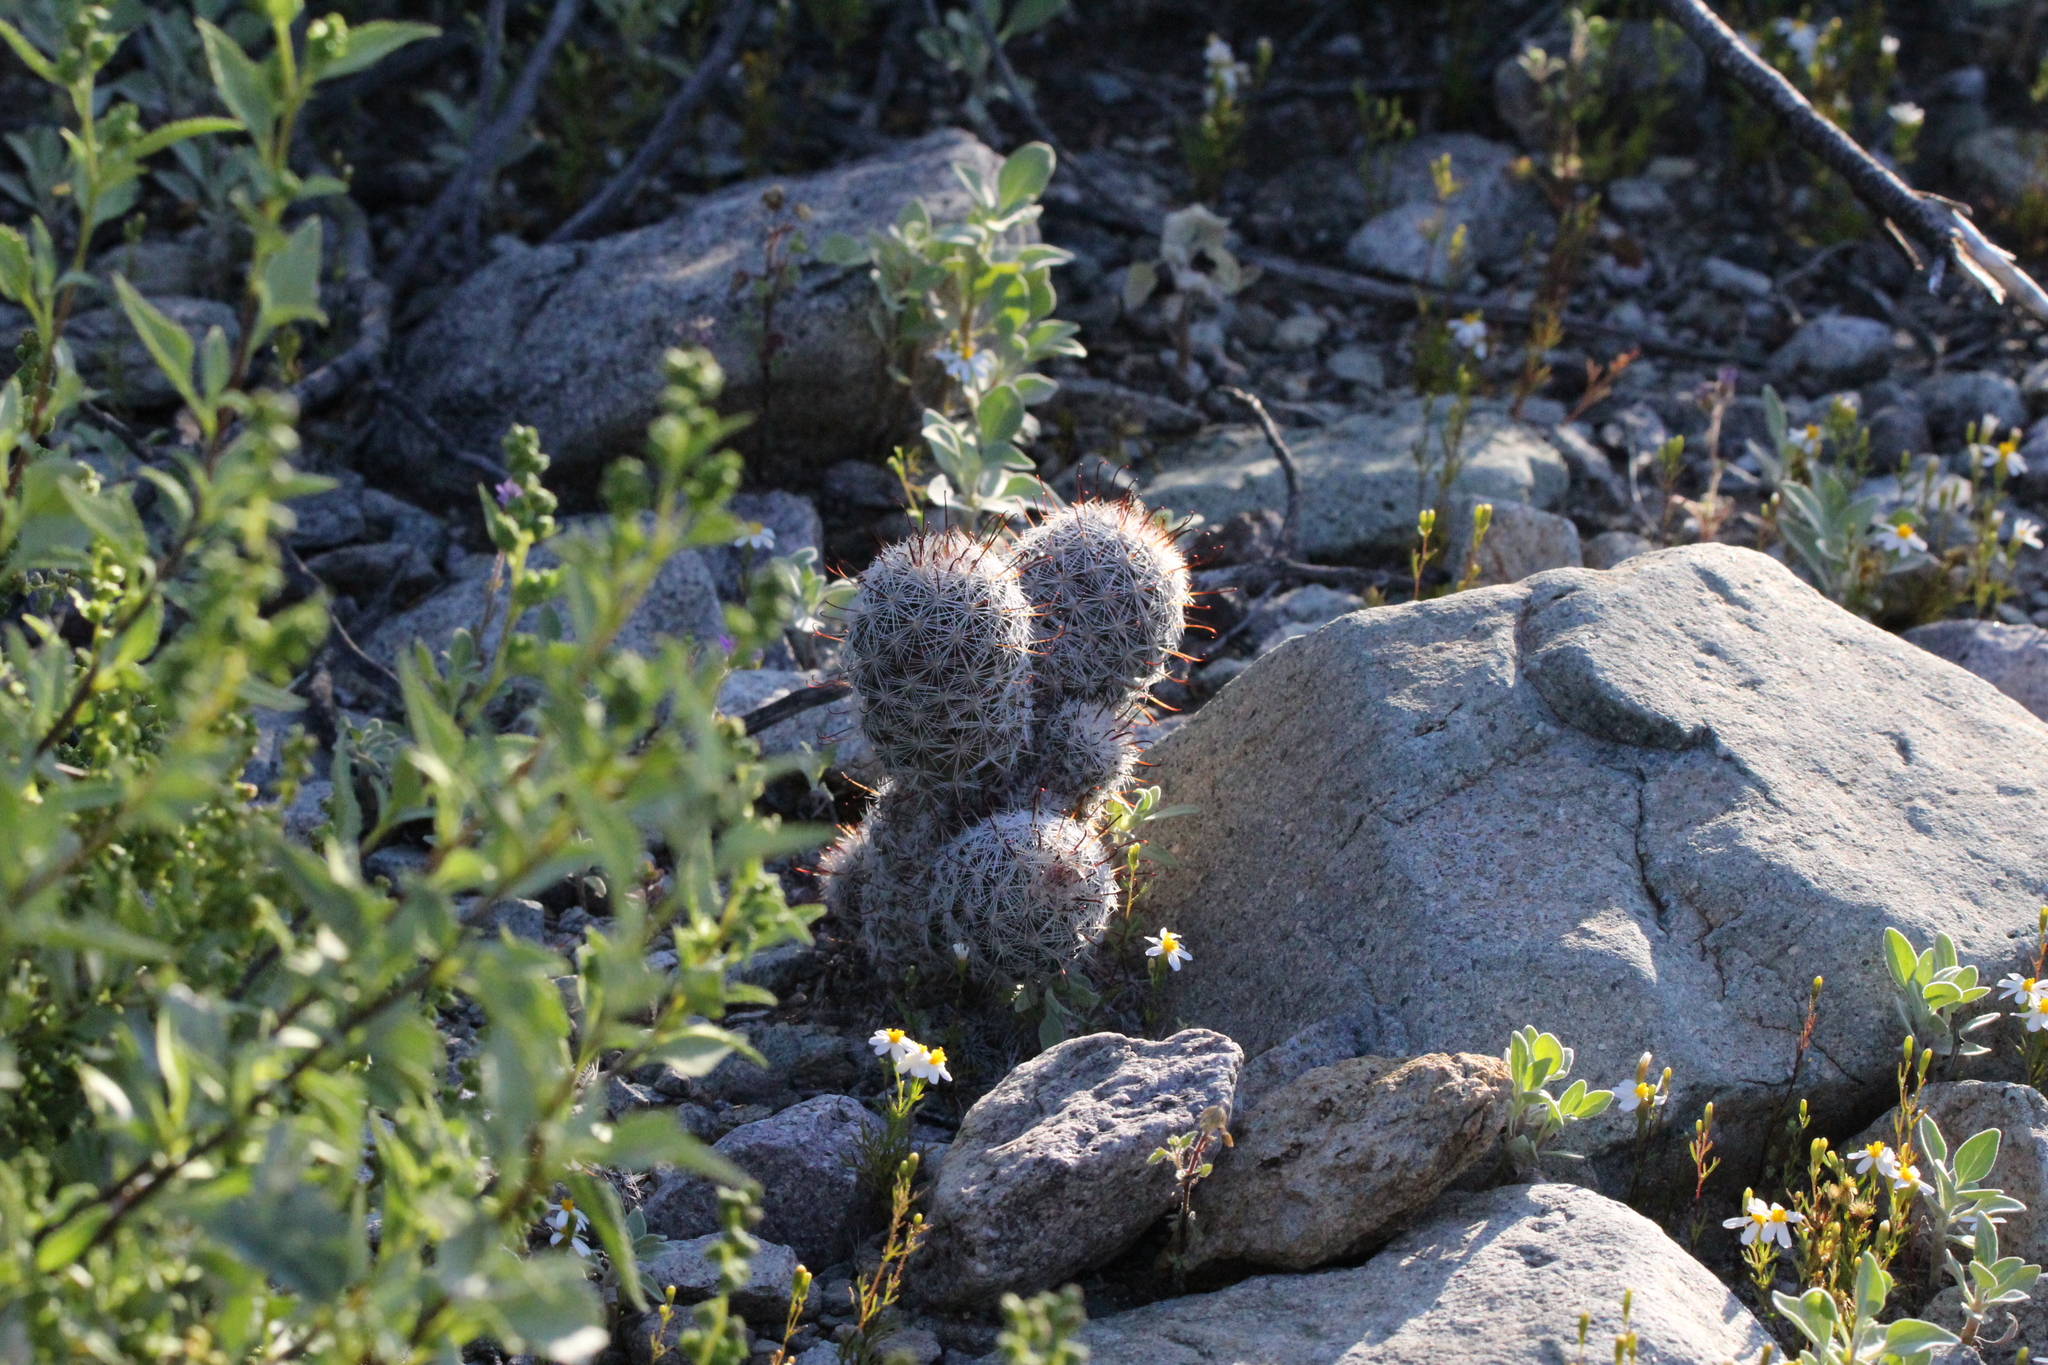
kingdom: Plantae
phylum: Tracheophyta
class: Magnoliopsida
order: Caryophyllales
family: Cactaceae
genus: Cochemiea
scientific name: Cochemiea grahamii
